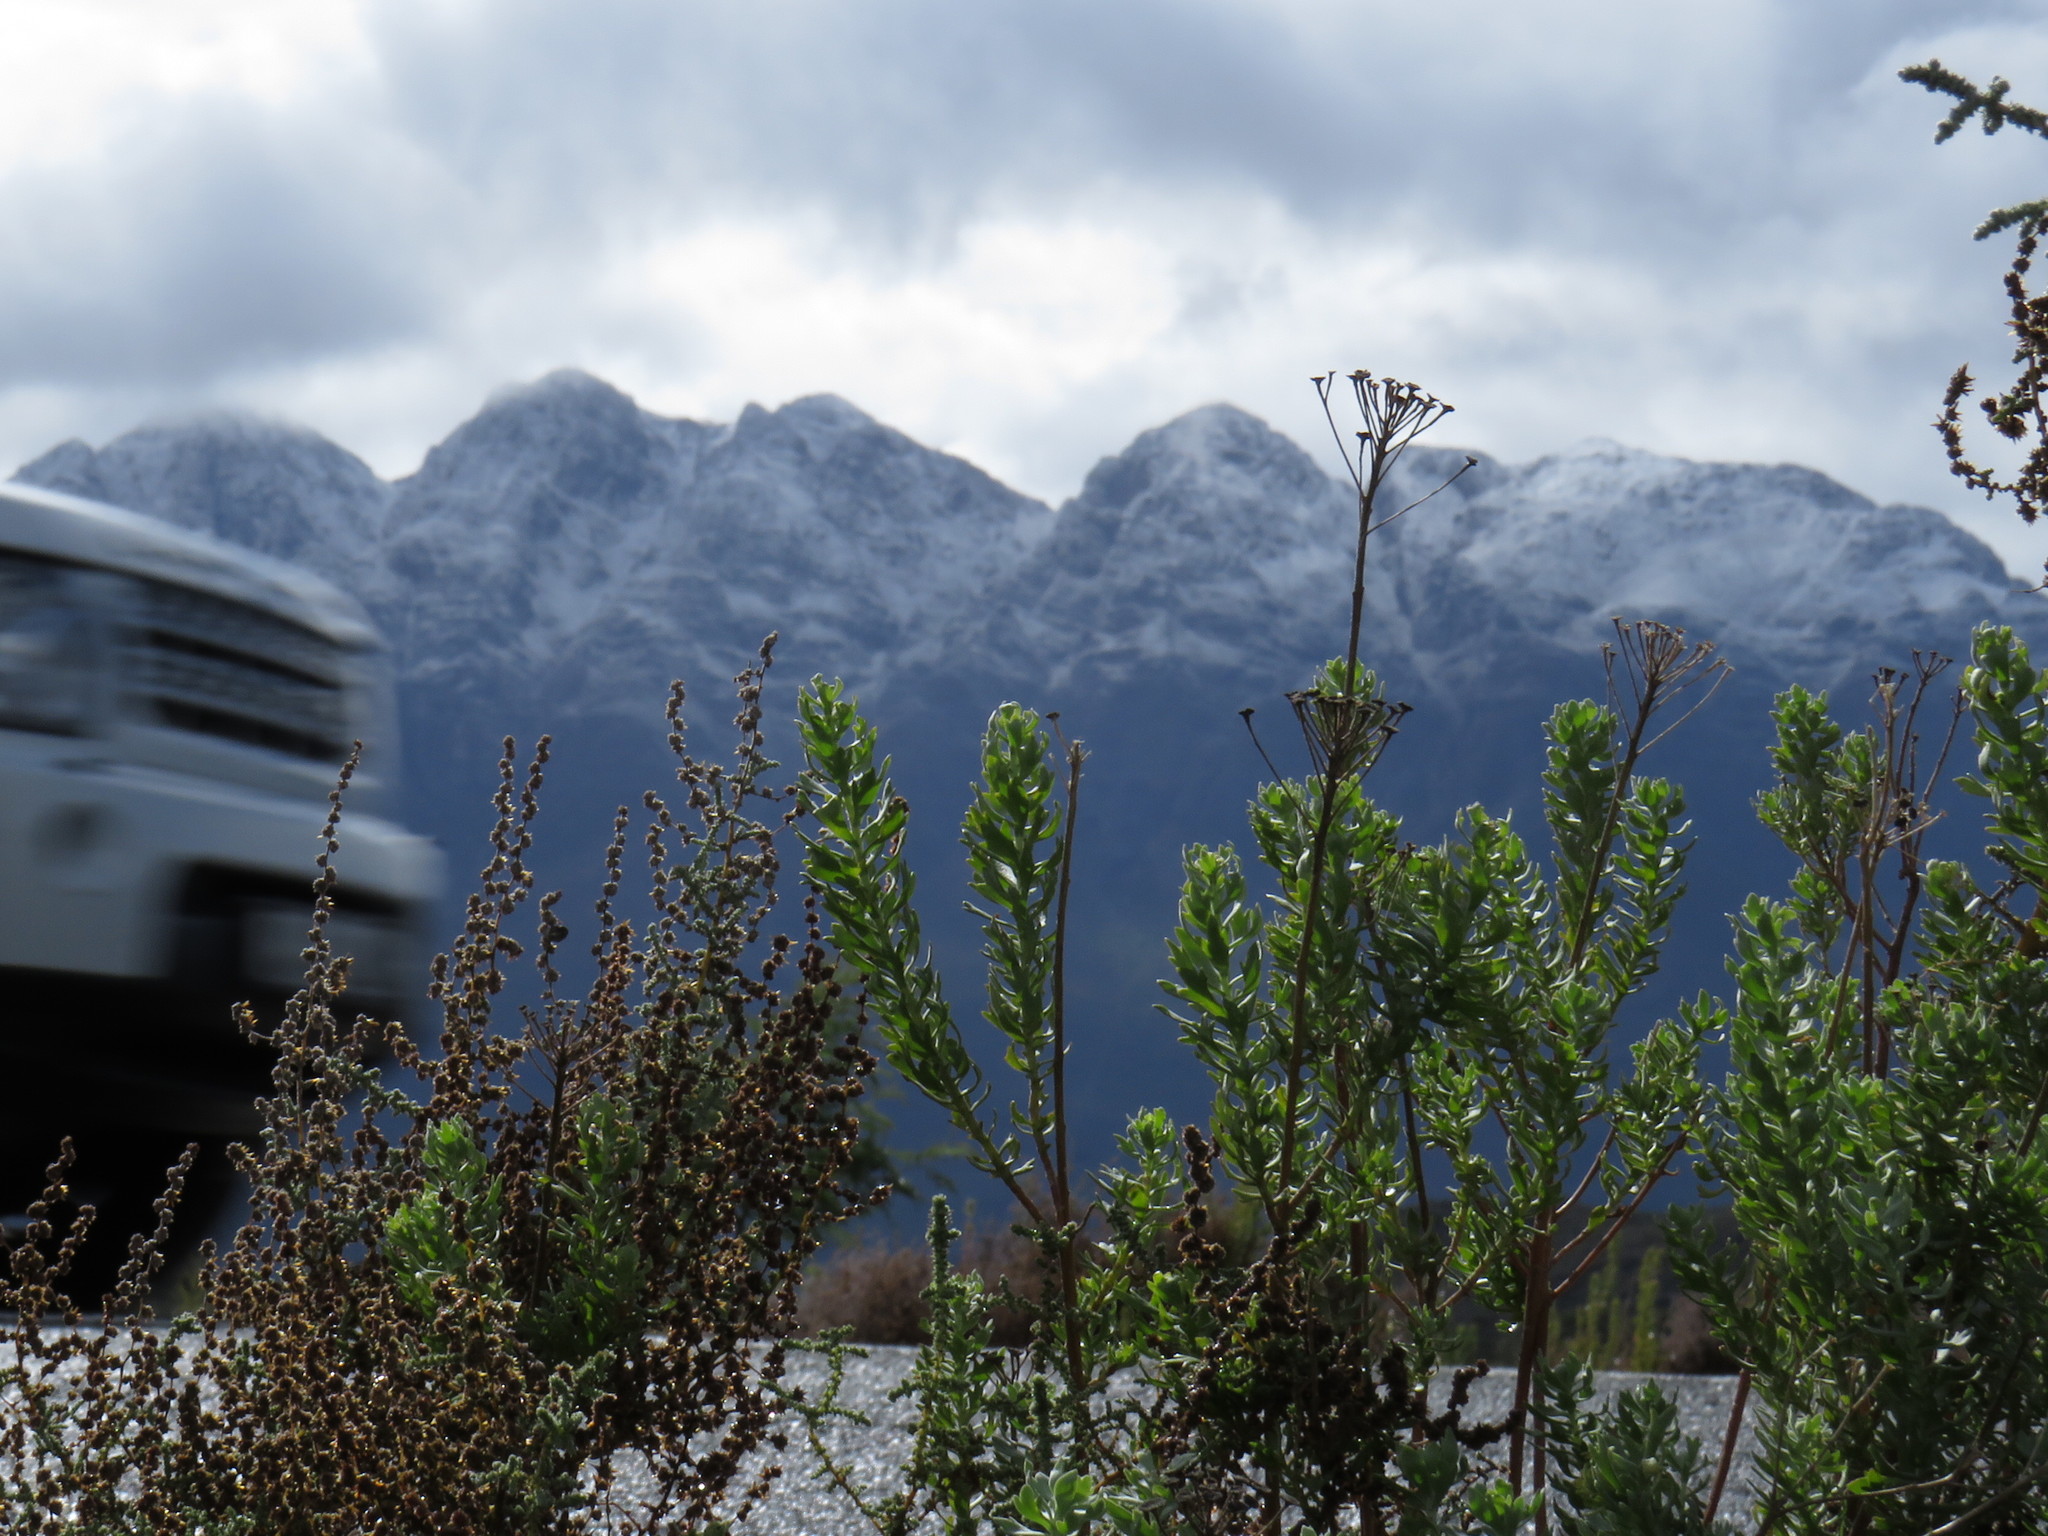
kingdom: Plantae
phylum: Tracheophyta
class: Magnoliopsida
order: Asterales
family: Asteraceae
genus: Athanasia
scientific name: Athanasia trifurcata
